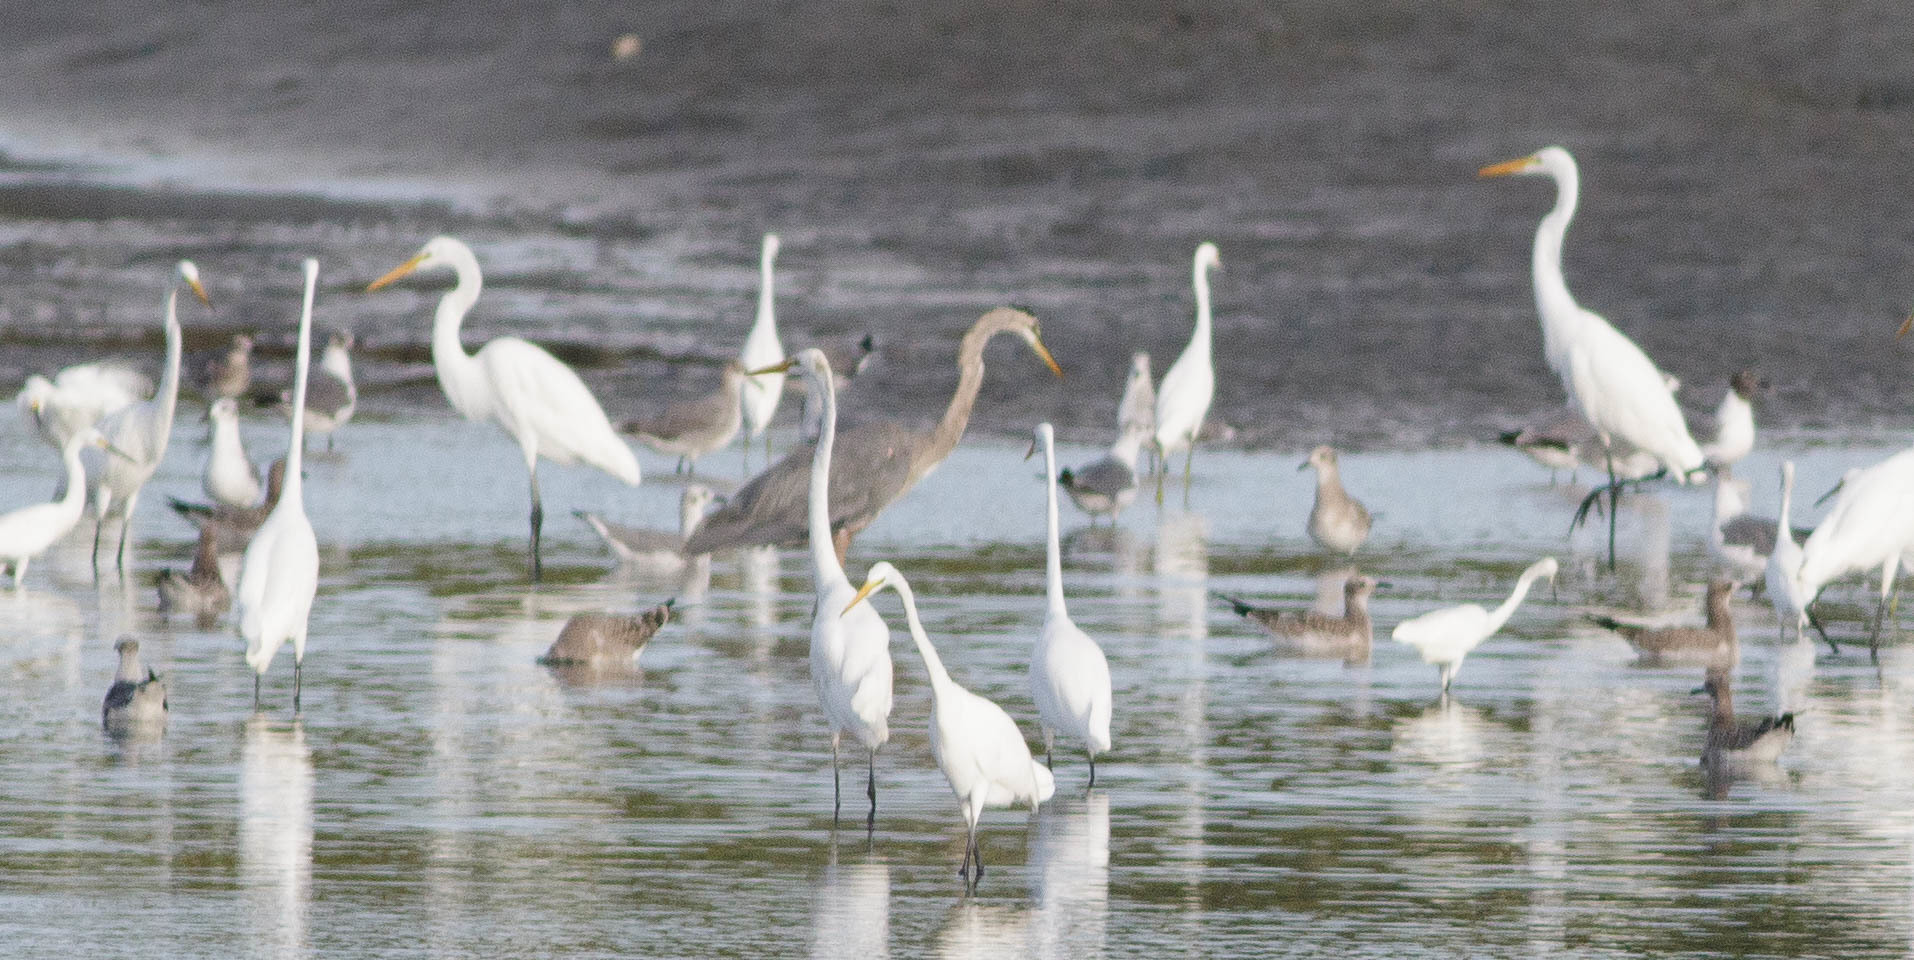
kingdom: Animalia
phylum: Chordata
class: Aves
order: Pelecaniformes
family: Ardeidae
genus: Ardea
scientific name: Ardea herodias
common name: Great blue heron
